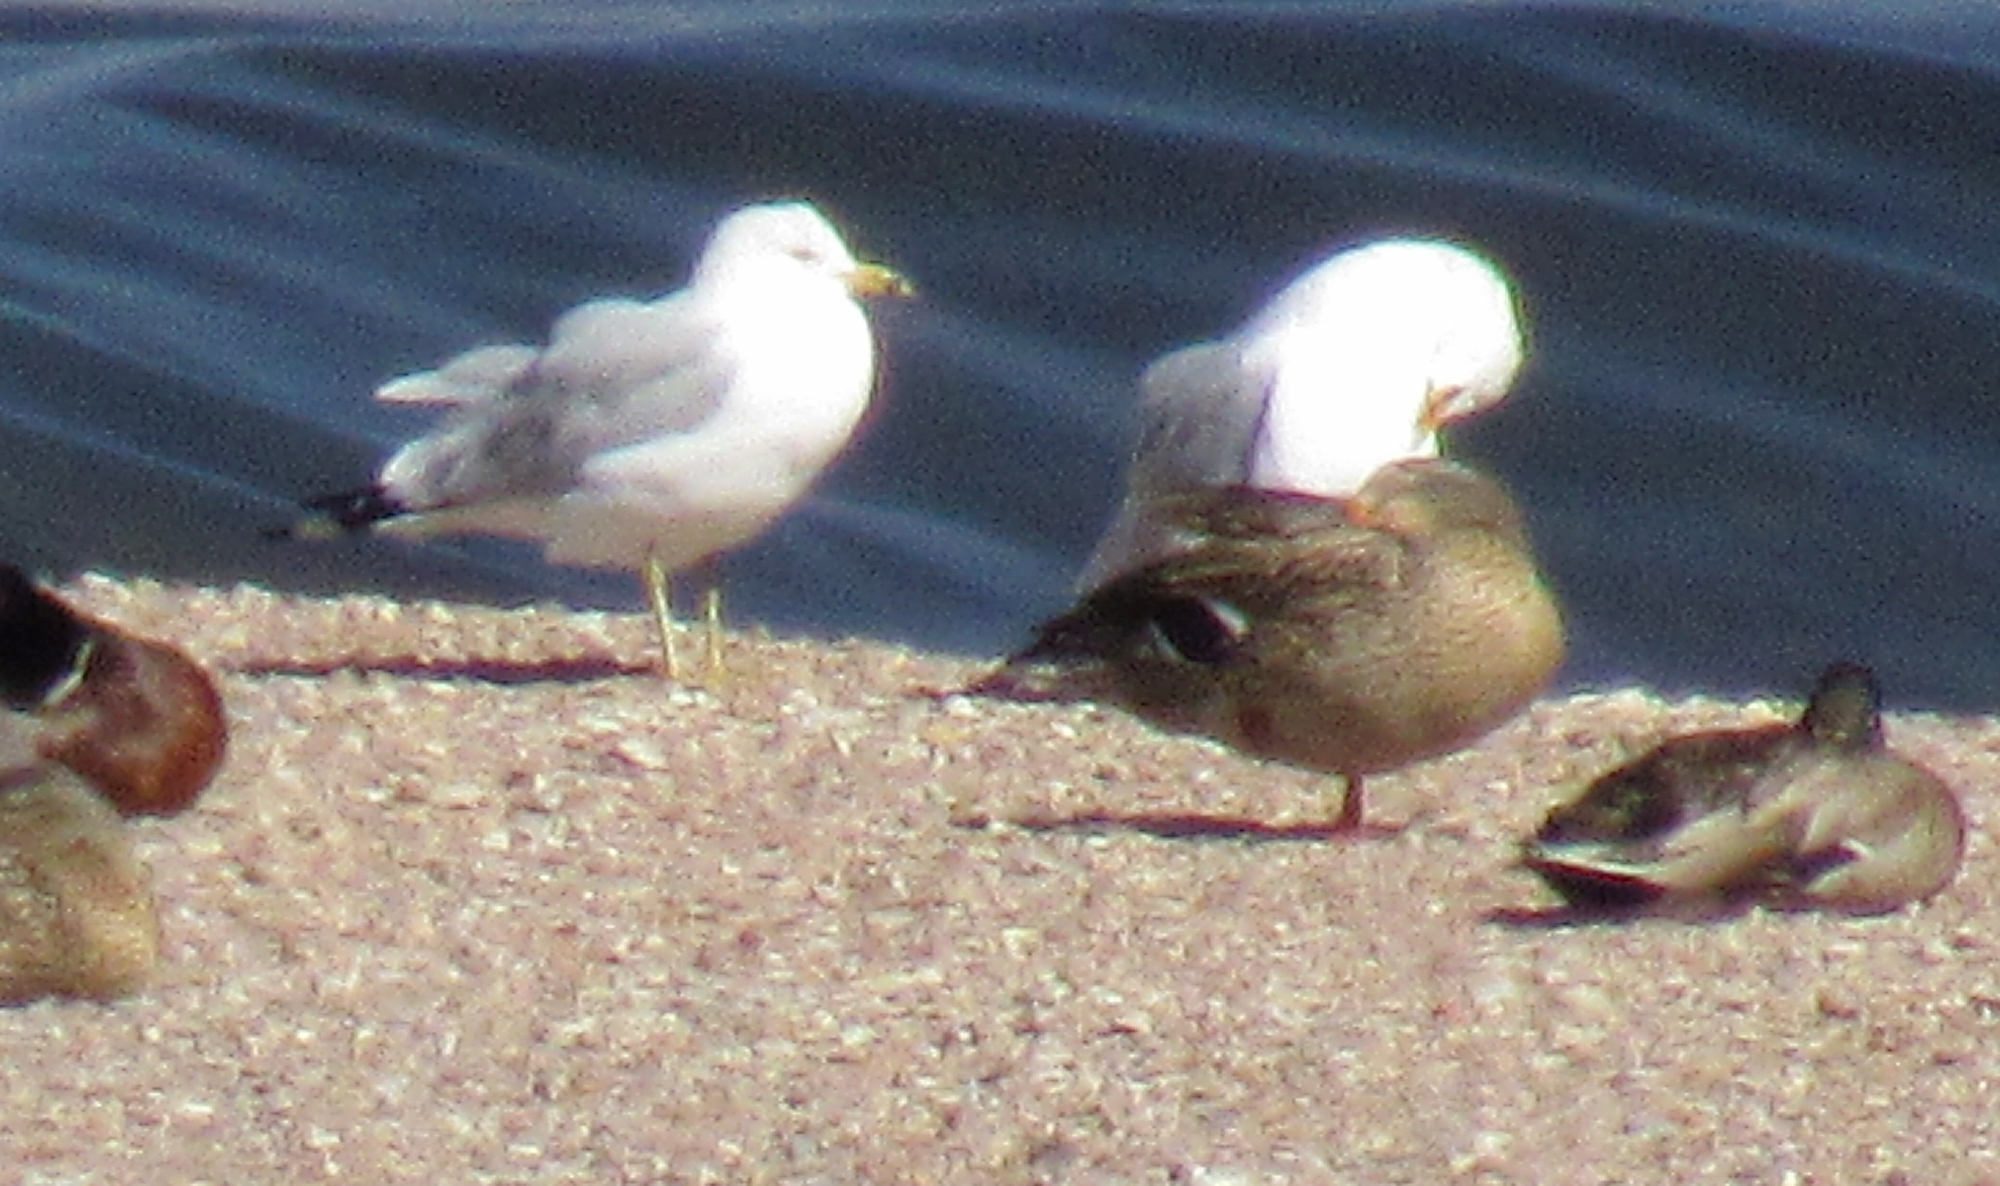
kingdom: Animalia
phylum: Chordata
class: Aves
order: Charadriiformes
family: Laridae
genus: Larus
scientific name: Larus delawarensis
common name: Ring-billed gull
